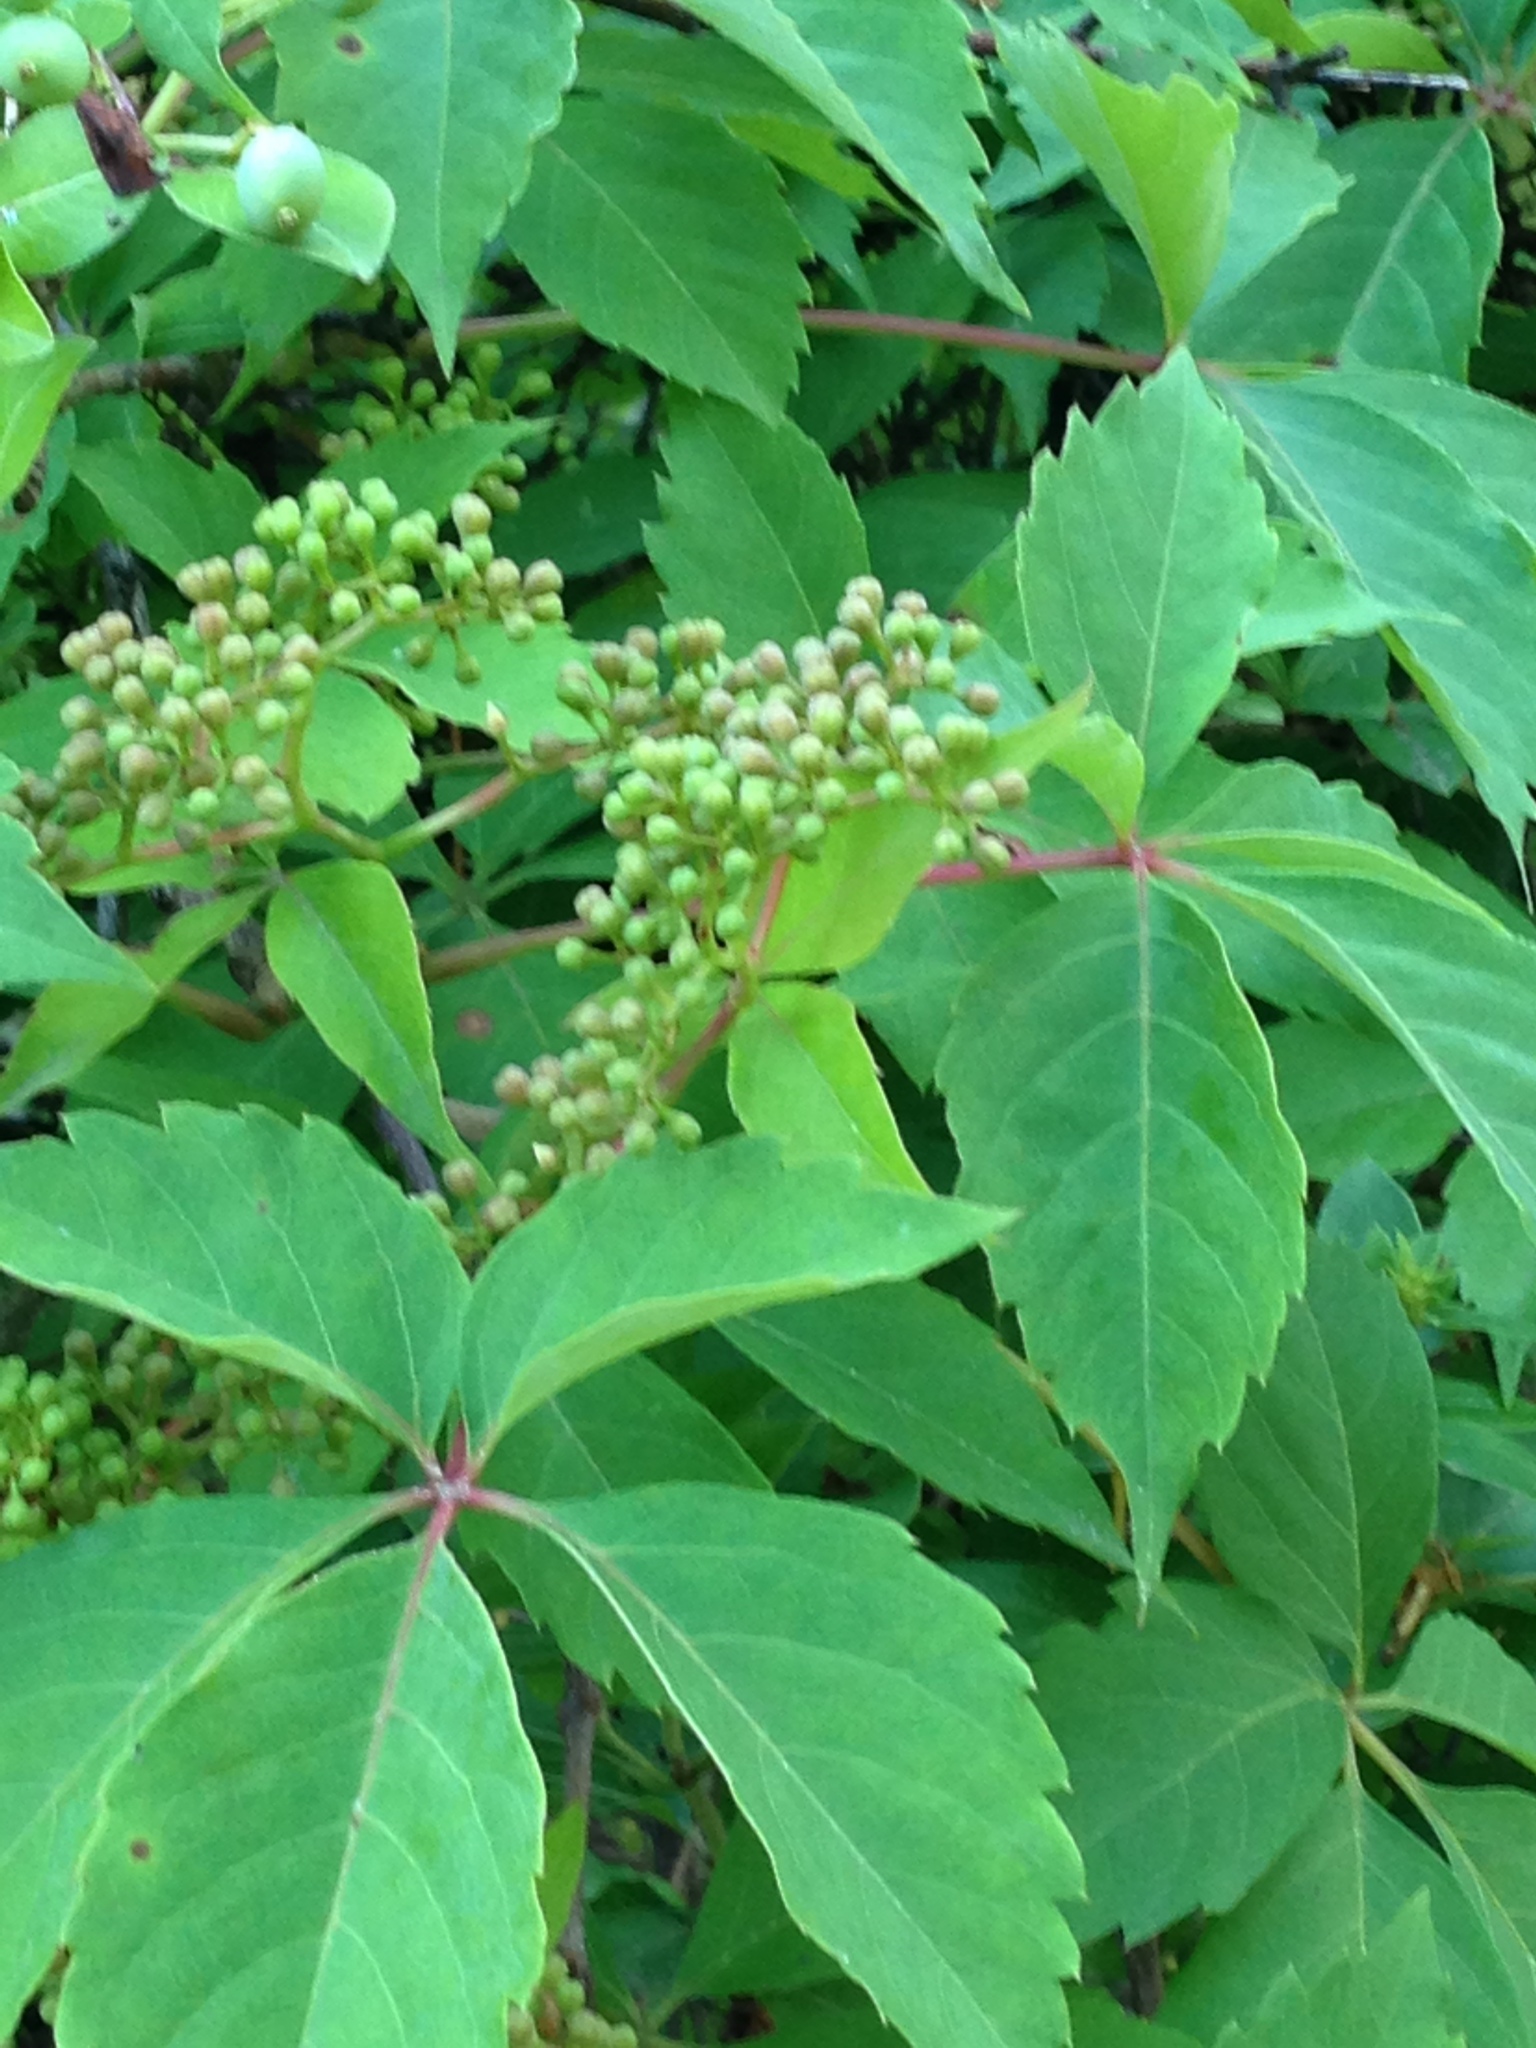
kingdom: Plantae
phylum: Tracheophyta
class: Magnoliopsida
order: Vitales
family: Vitaceae
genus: Parthenocissus
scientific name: Parthenocissus quinquefolia
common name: Virginia-creeper
